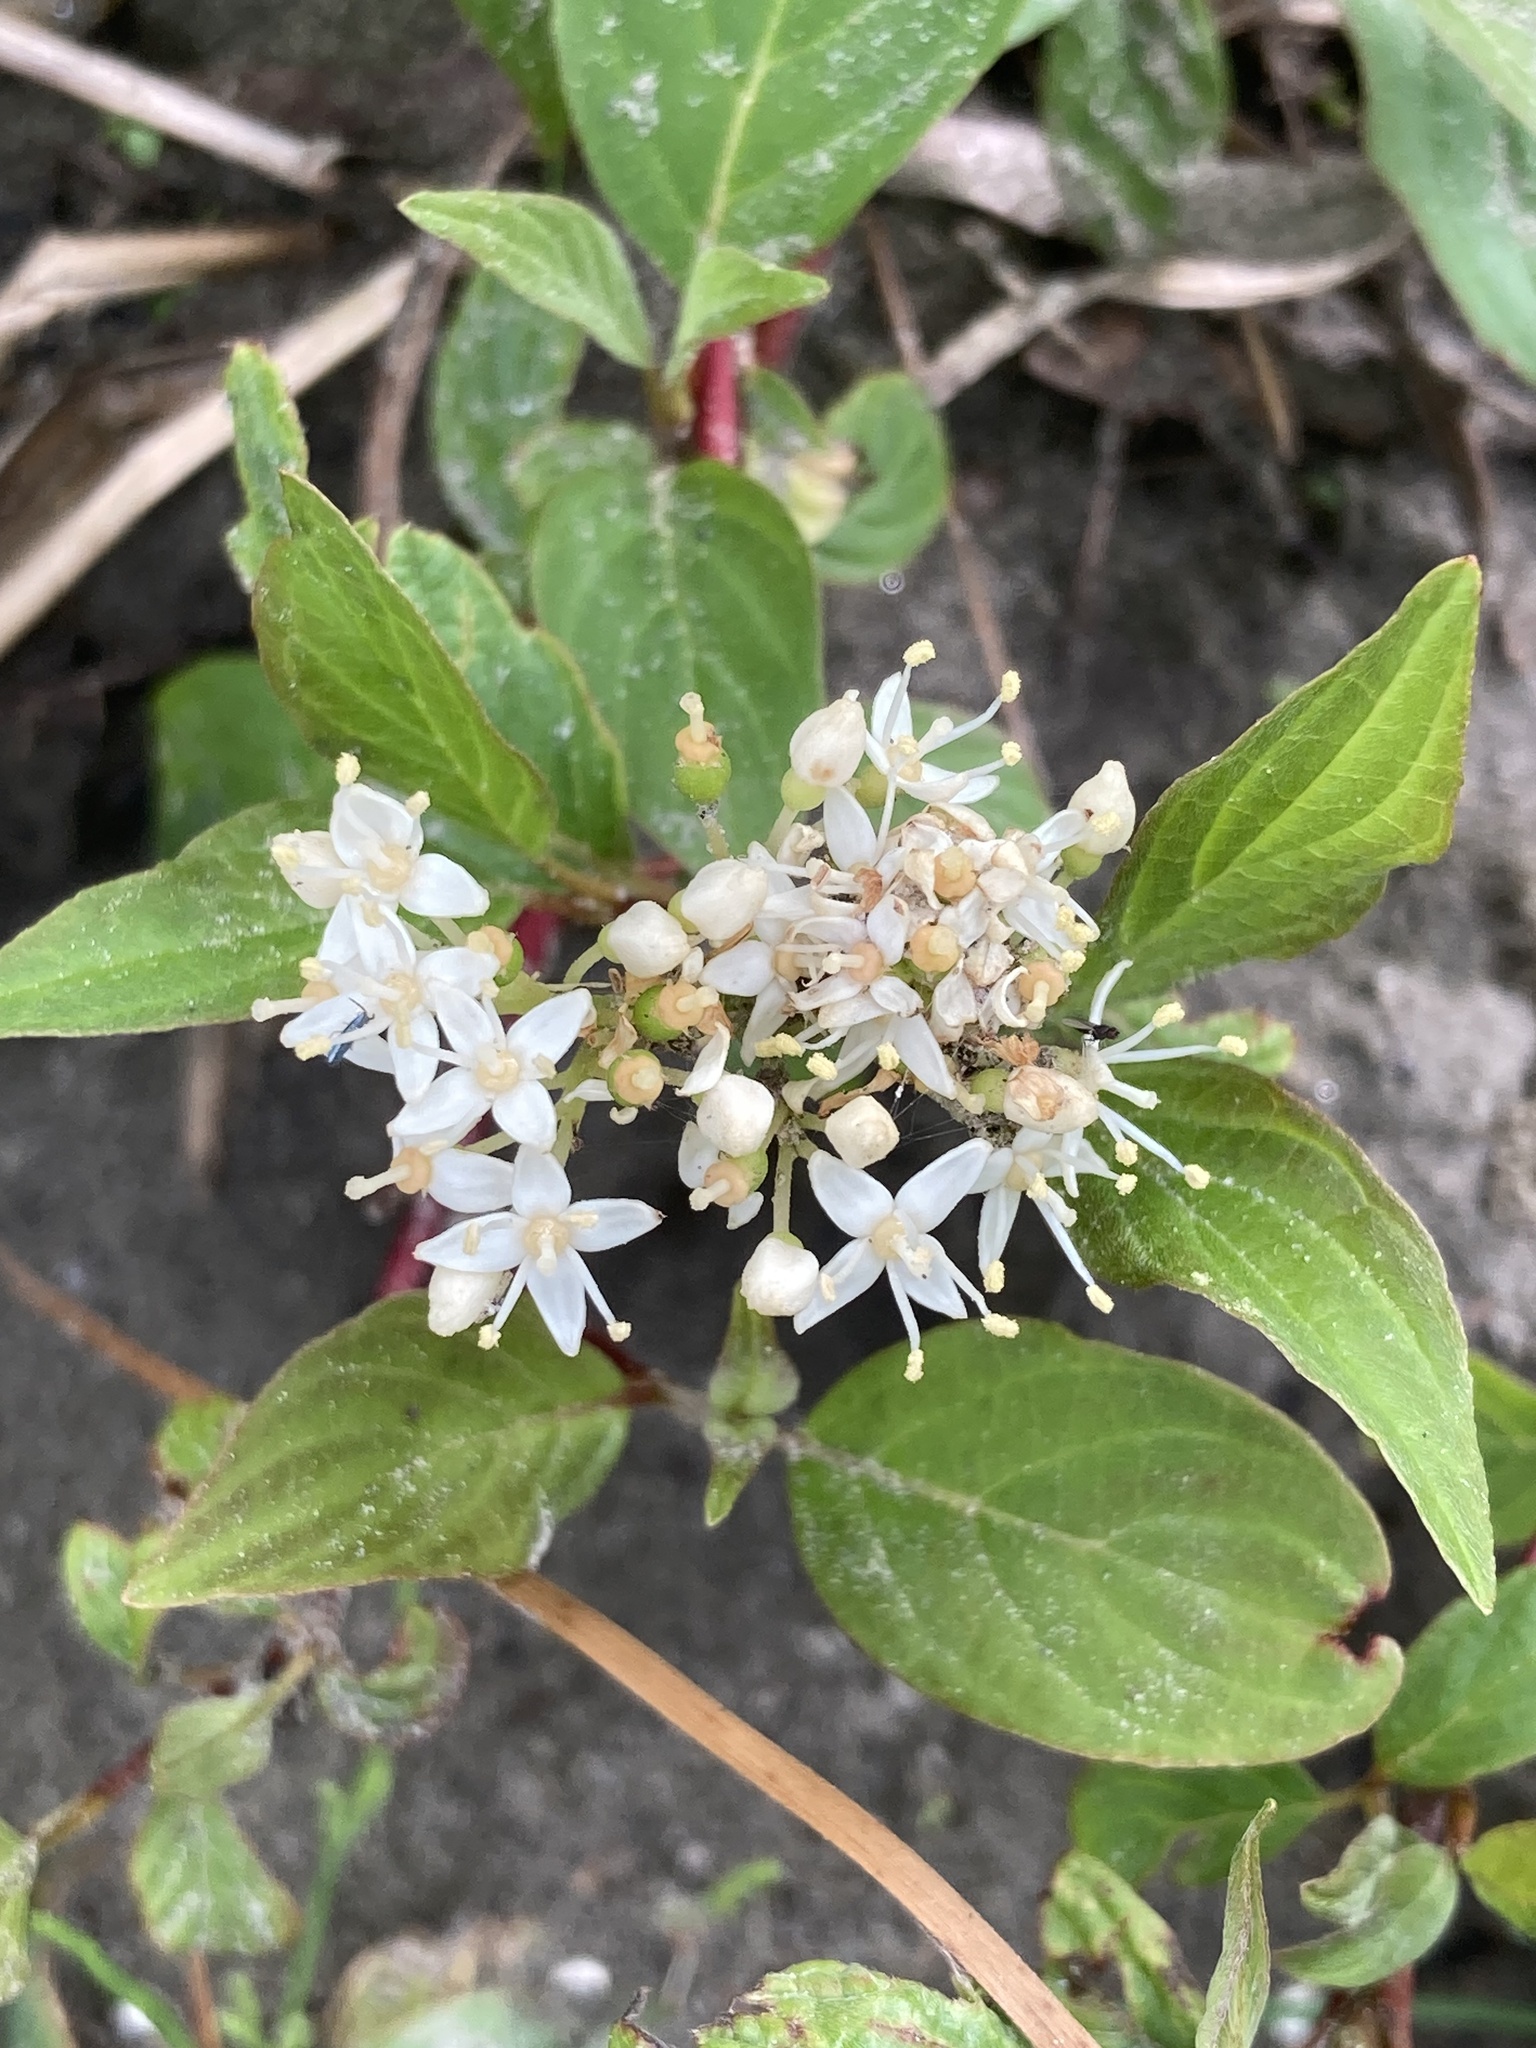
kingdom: Plantae
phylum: Tracheophyta
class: Magnoliopsida
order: Cornales
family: Cornaceae
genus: Cornus
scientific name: Cornus sericea
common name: Red-osier dogwood
